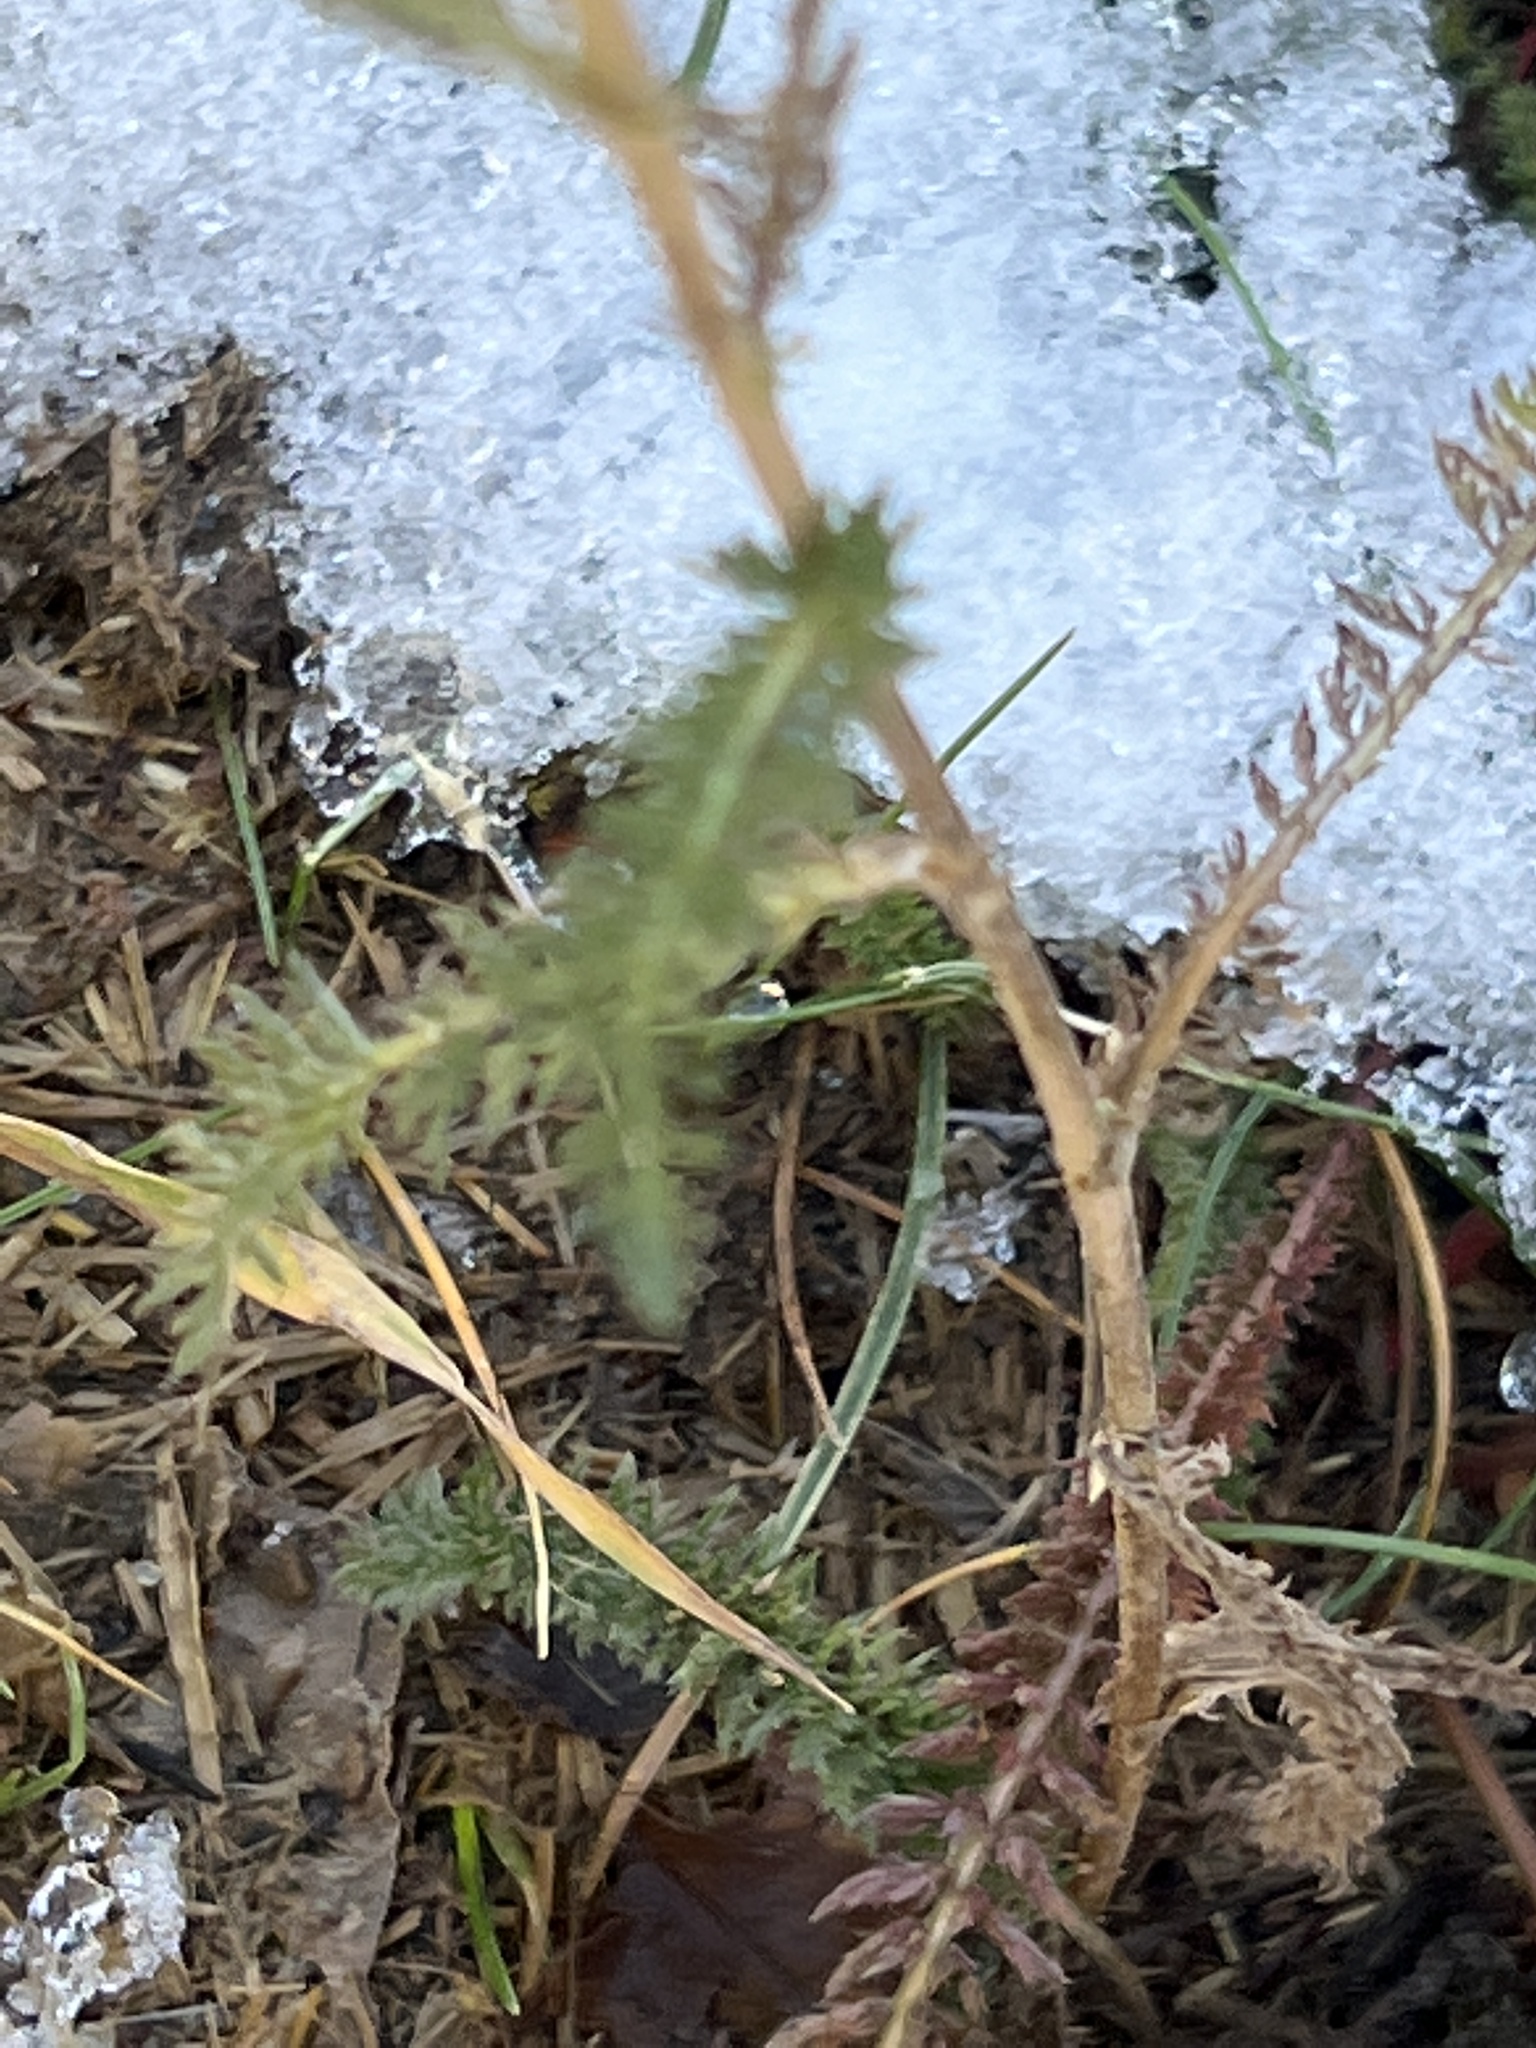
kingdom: Plantae
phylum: Tracheophyta
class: Magnoliopsida
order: Asterales
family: Asteraceae
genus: Achillea
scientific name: Achillea millefolium
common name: Yarrow
